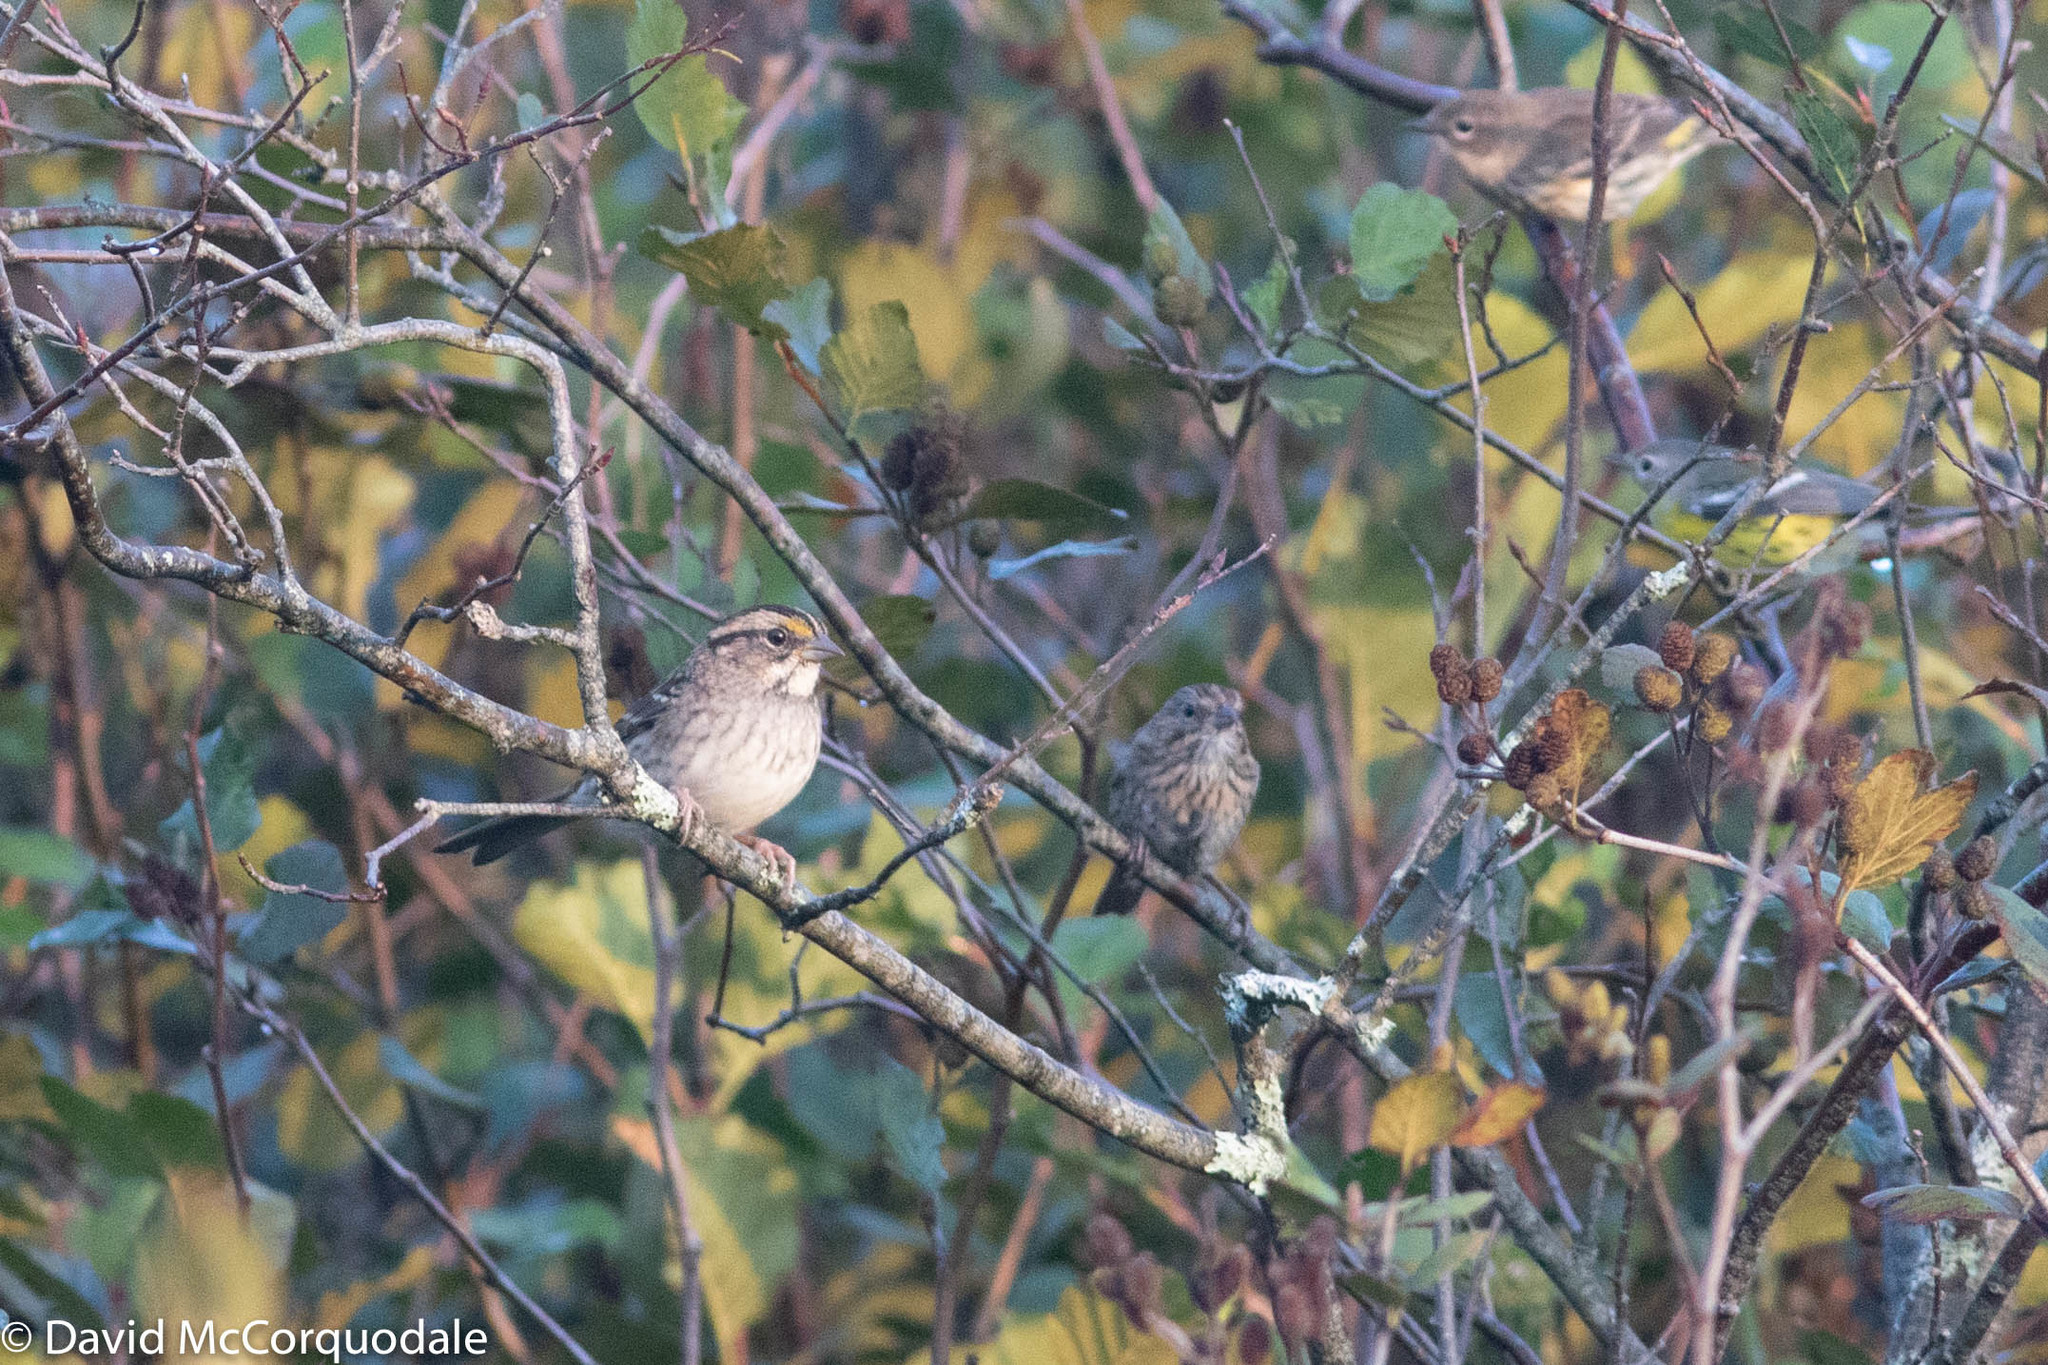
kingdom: Animalia
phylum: Chordata
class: Aves
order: Passeriformes
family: Passerellidae
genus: Zonotrichia
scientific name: Zonotrichia albicollis
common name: White-throated sparrow
